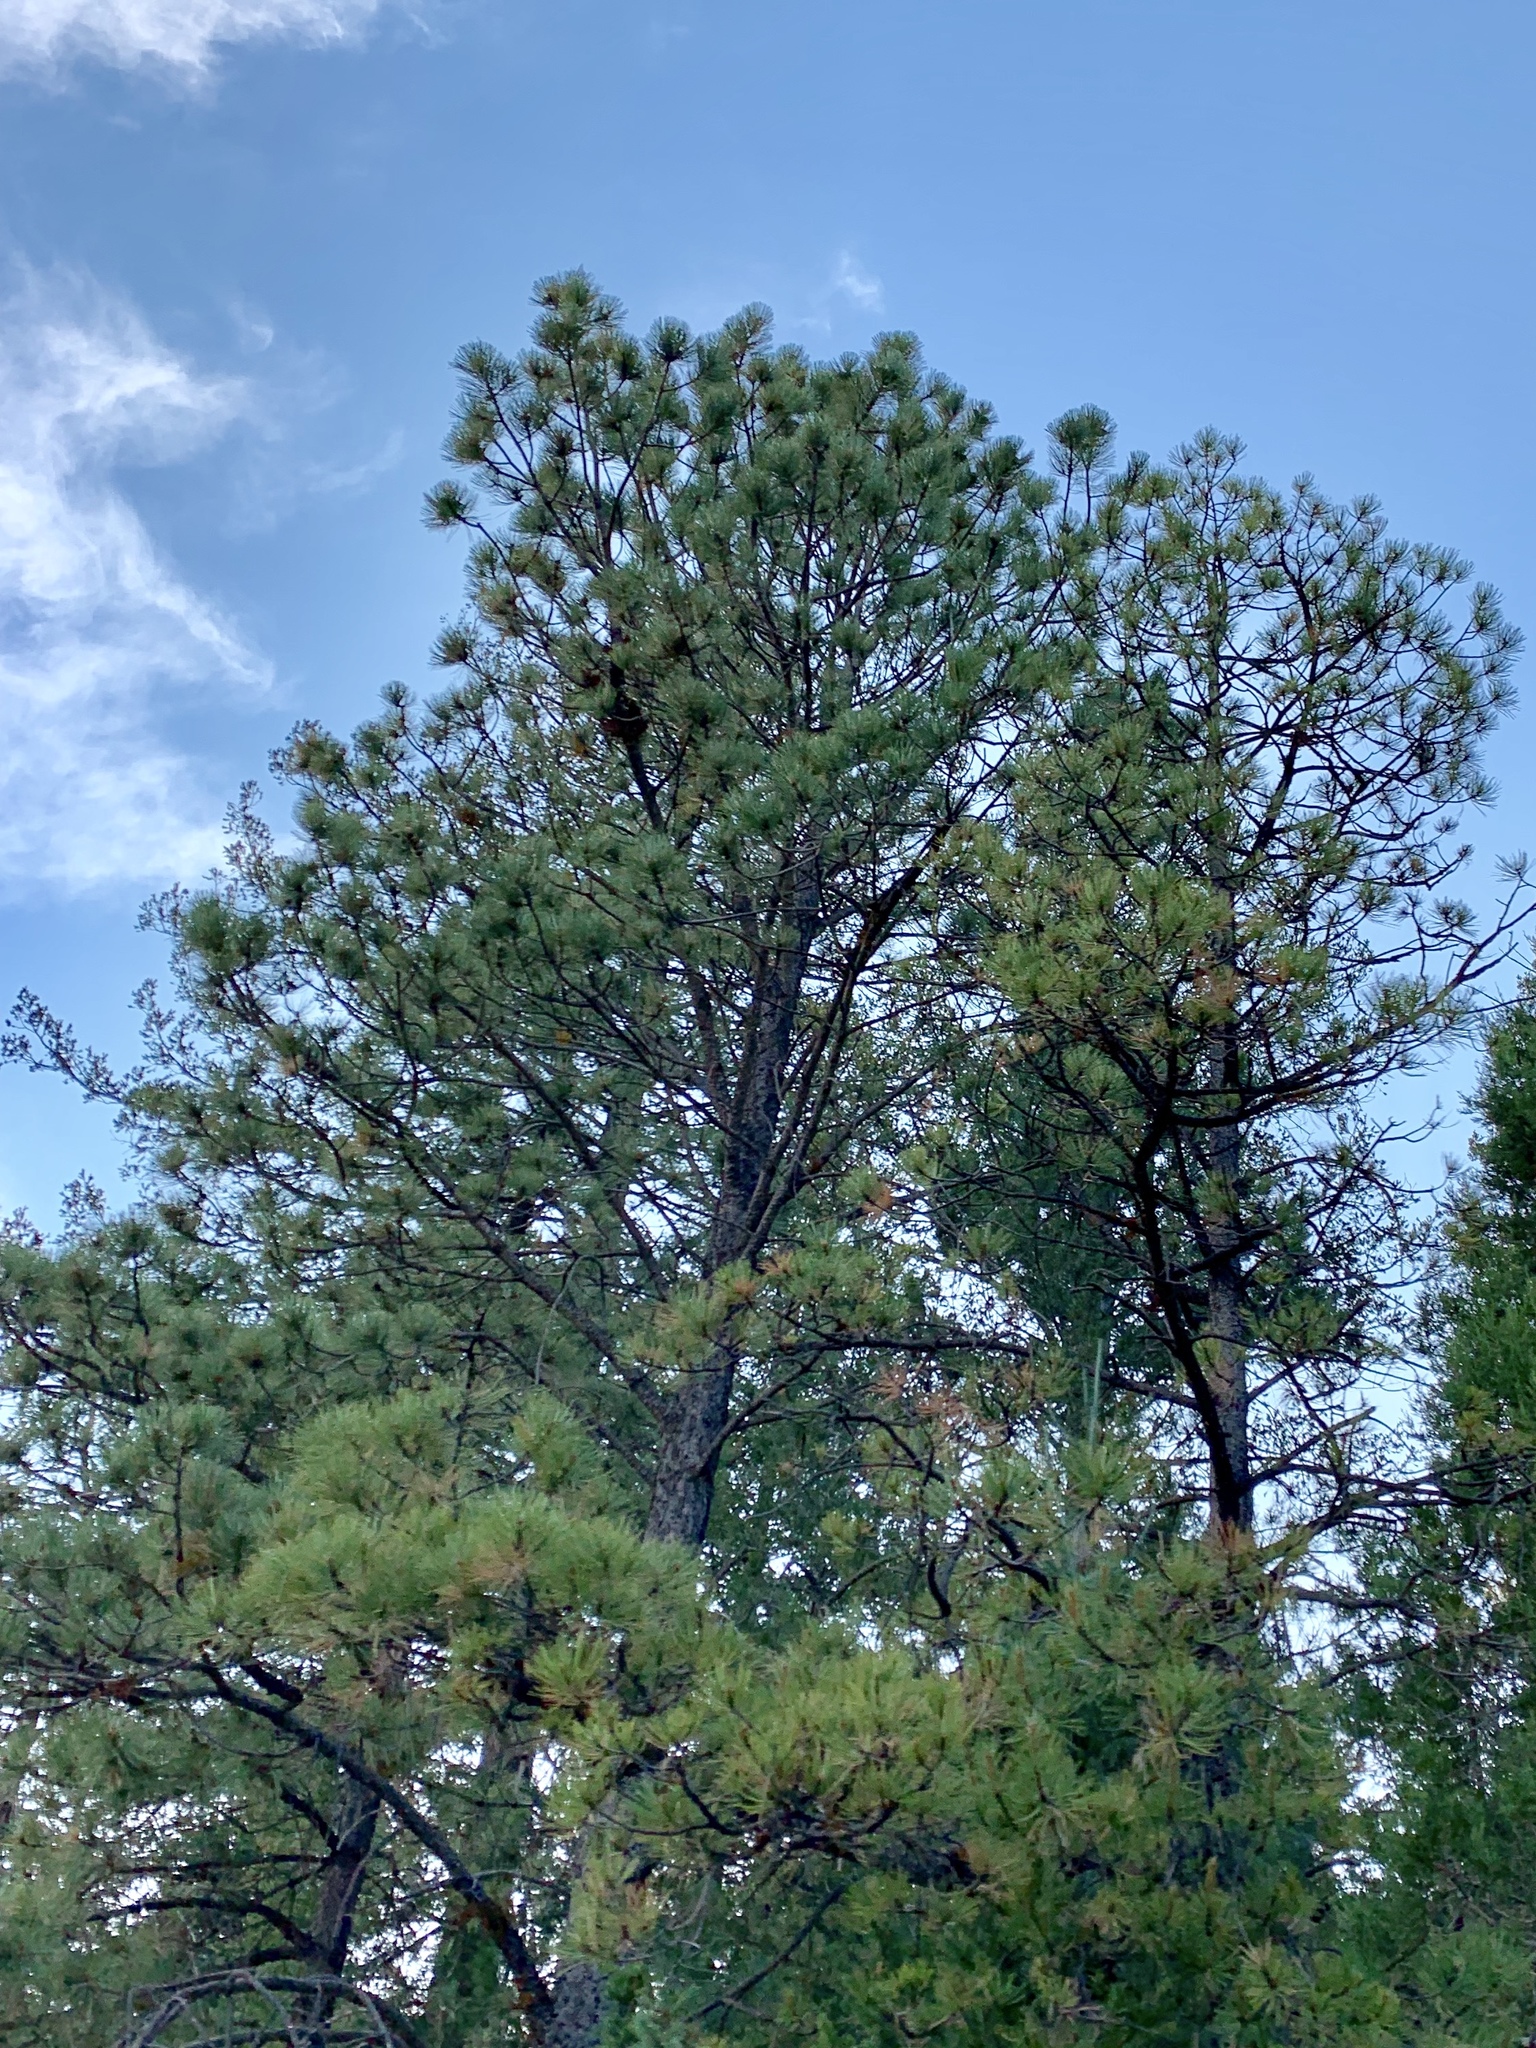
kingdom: Plantae
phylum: Tracheophyta
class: Pinopsida
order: Pinales
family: Pinaceae
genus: Pinus
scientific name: Pinus ponderosa
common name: Western yellow-pine
